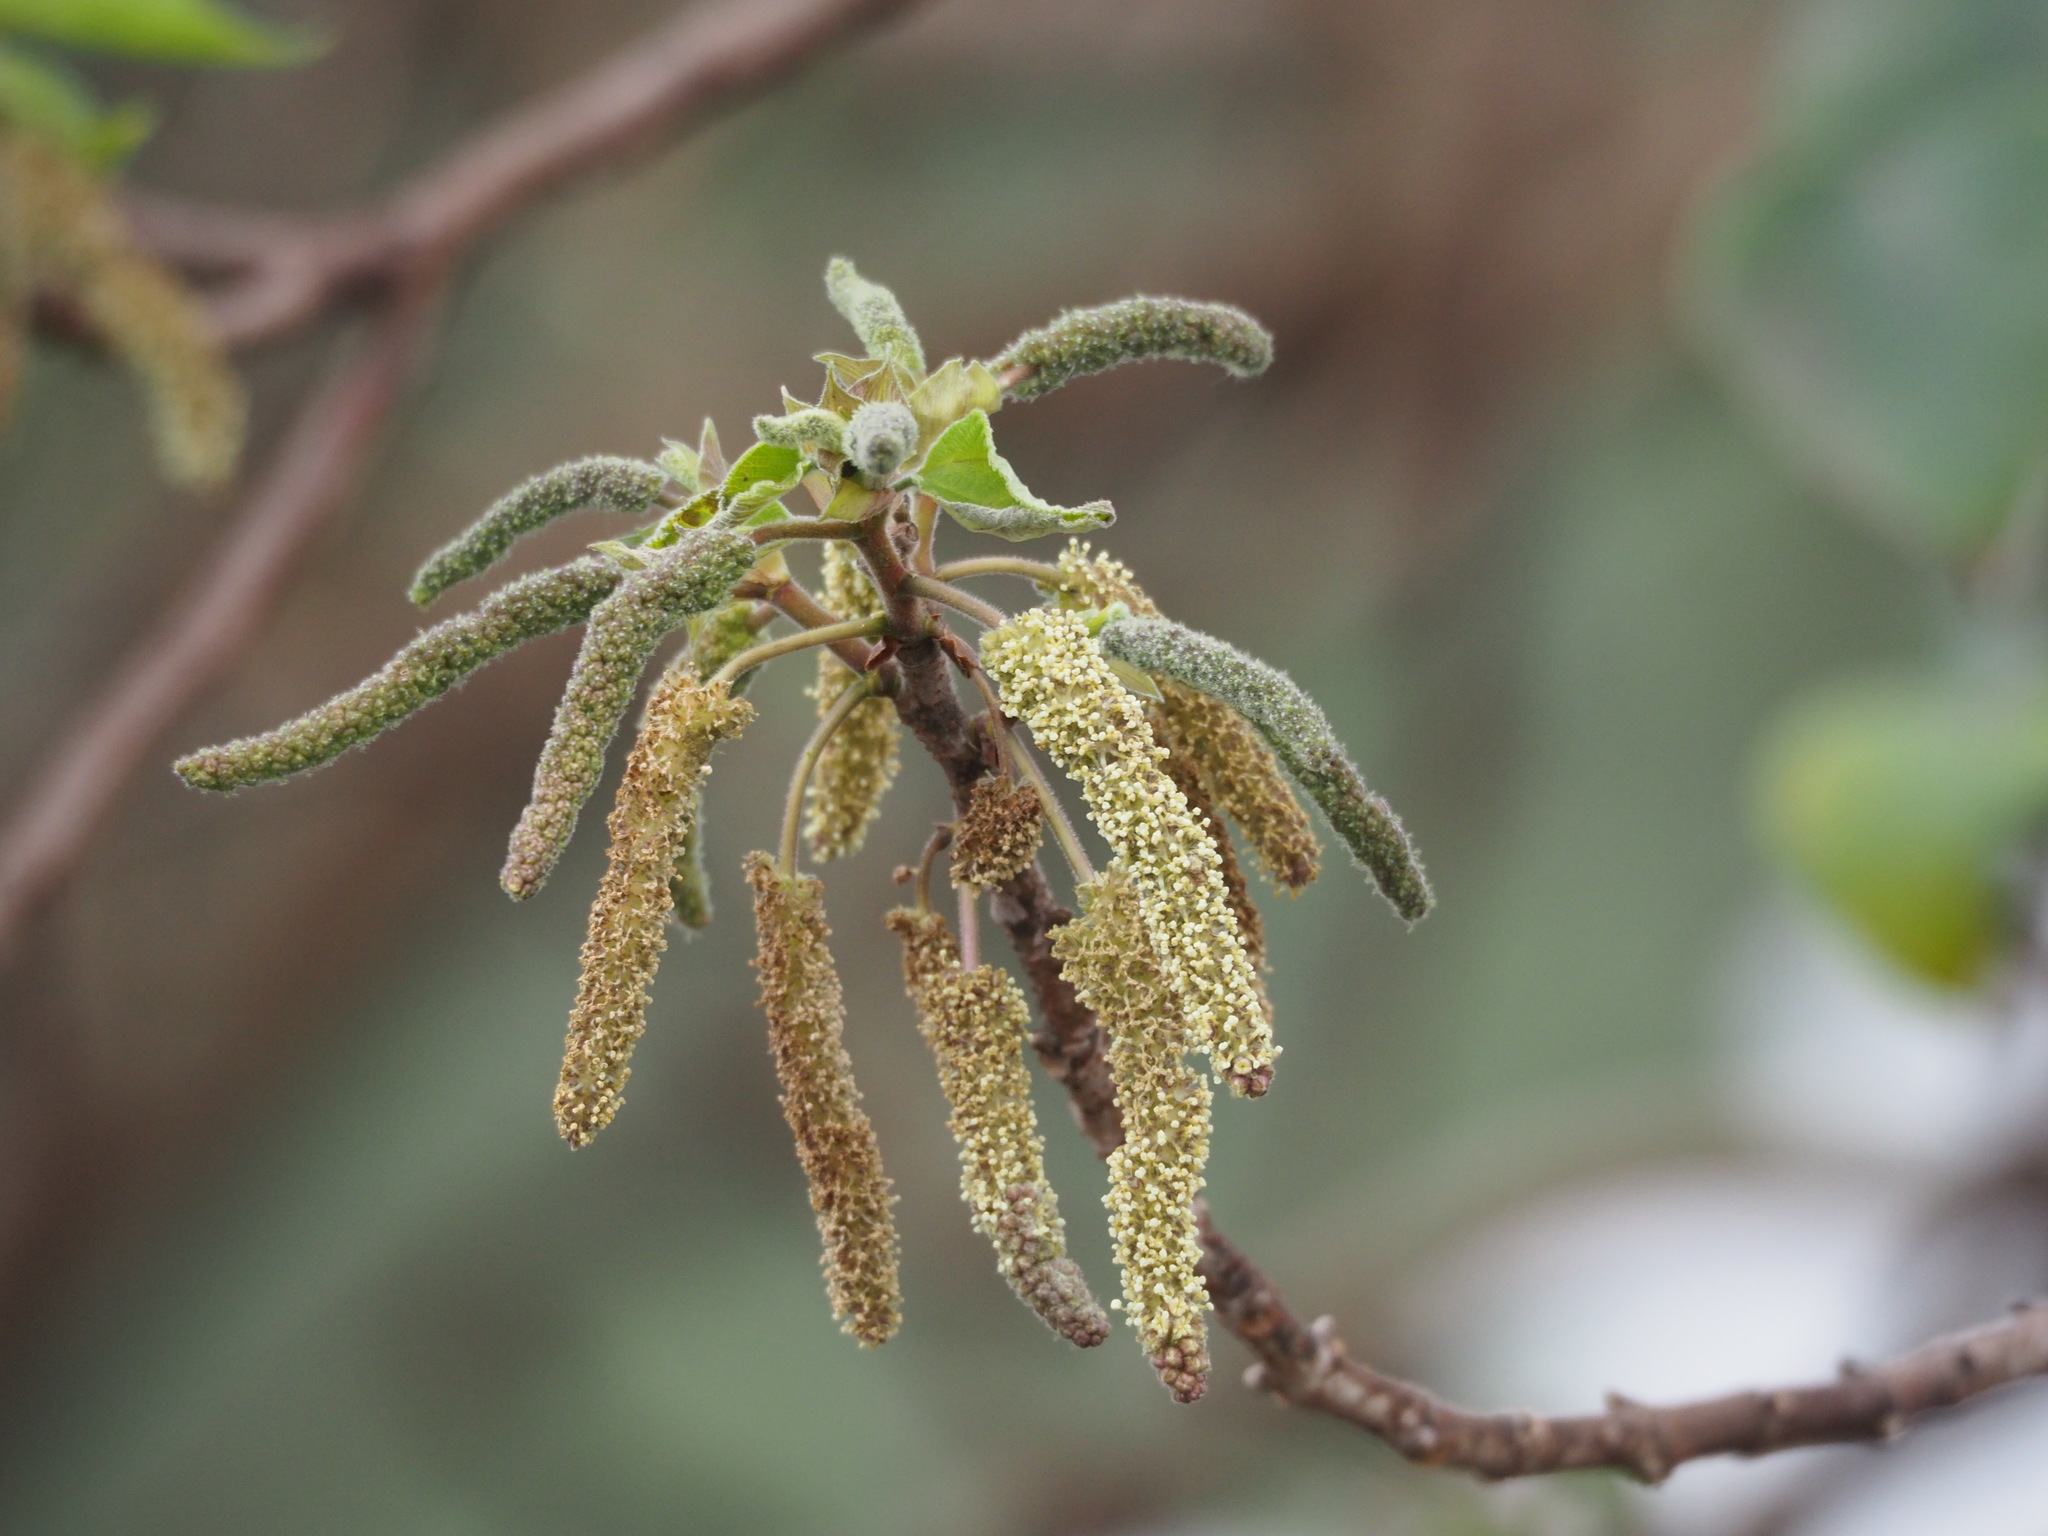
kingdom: Plantae
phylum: Tracheophyta
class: Magnoliopsida
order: Rosales
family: Moraceae
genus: Broussonetia
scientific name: Broussonetia papyrifera
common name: Paper mulberry
